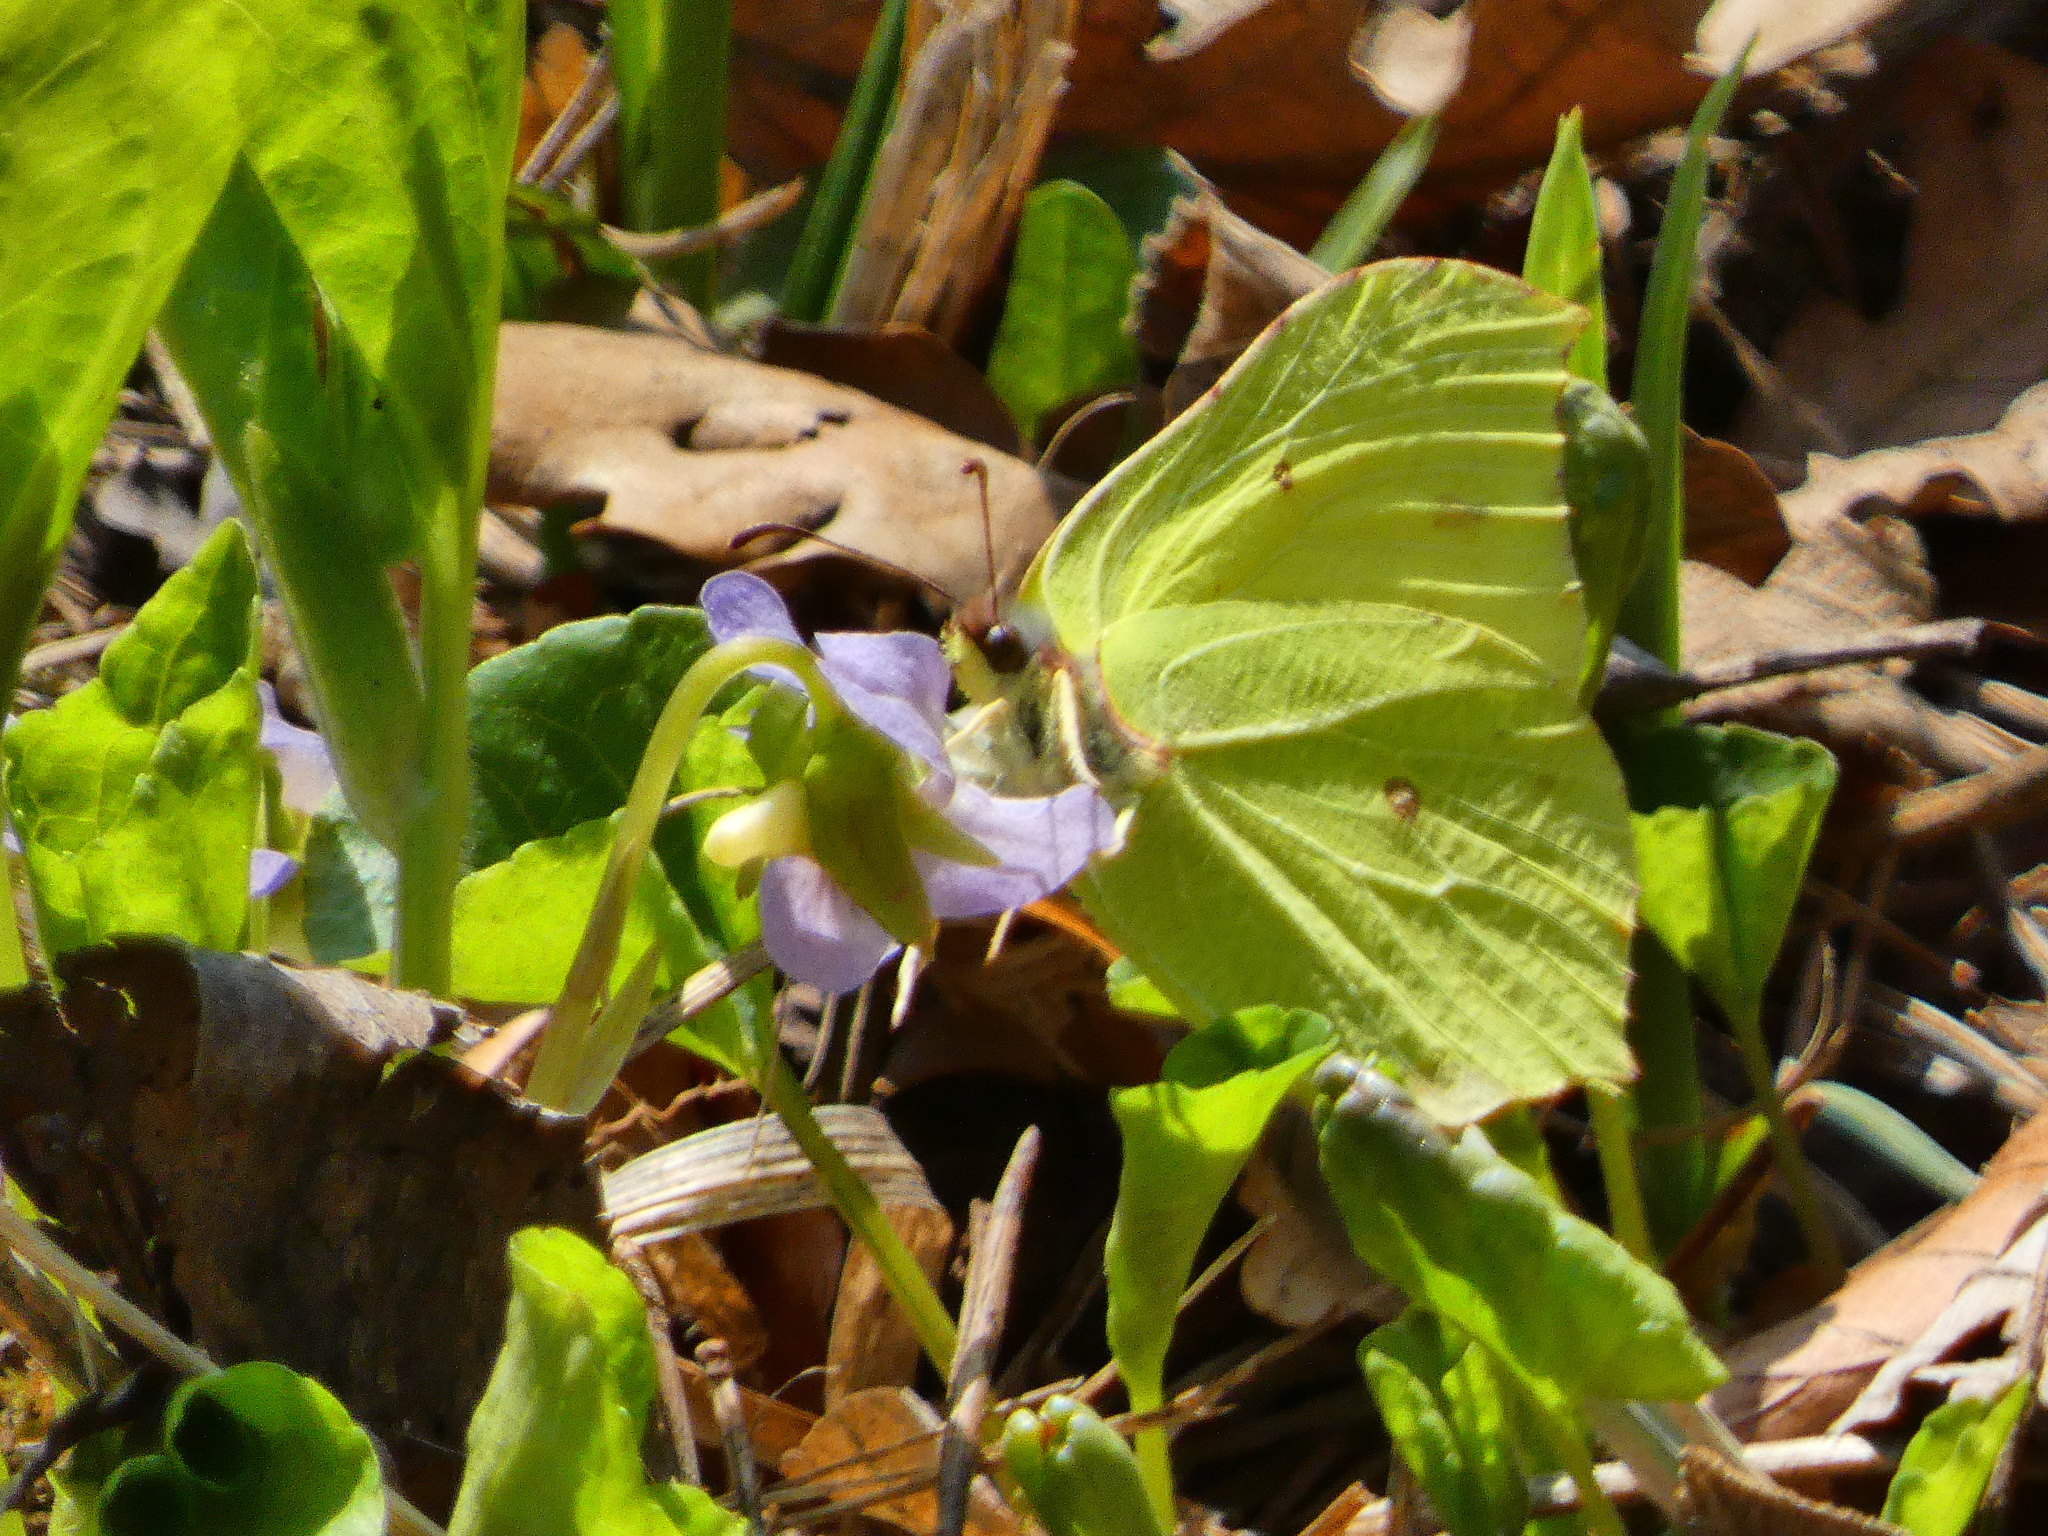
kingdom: Animalia
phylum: Arthropoda
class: Insecta
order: Lepidoptera
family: Pieridae
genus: Gonepteryx
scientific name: Gonepteryx rhamni
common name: Brimstone
